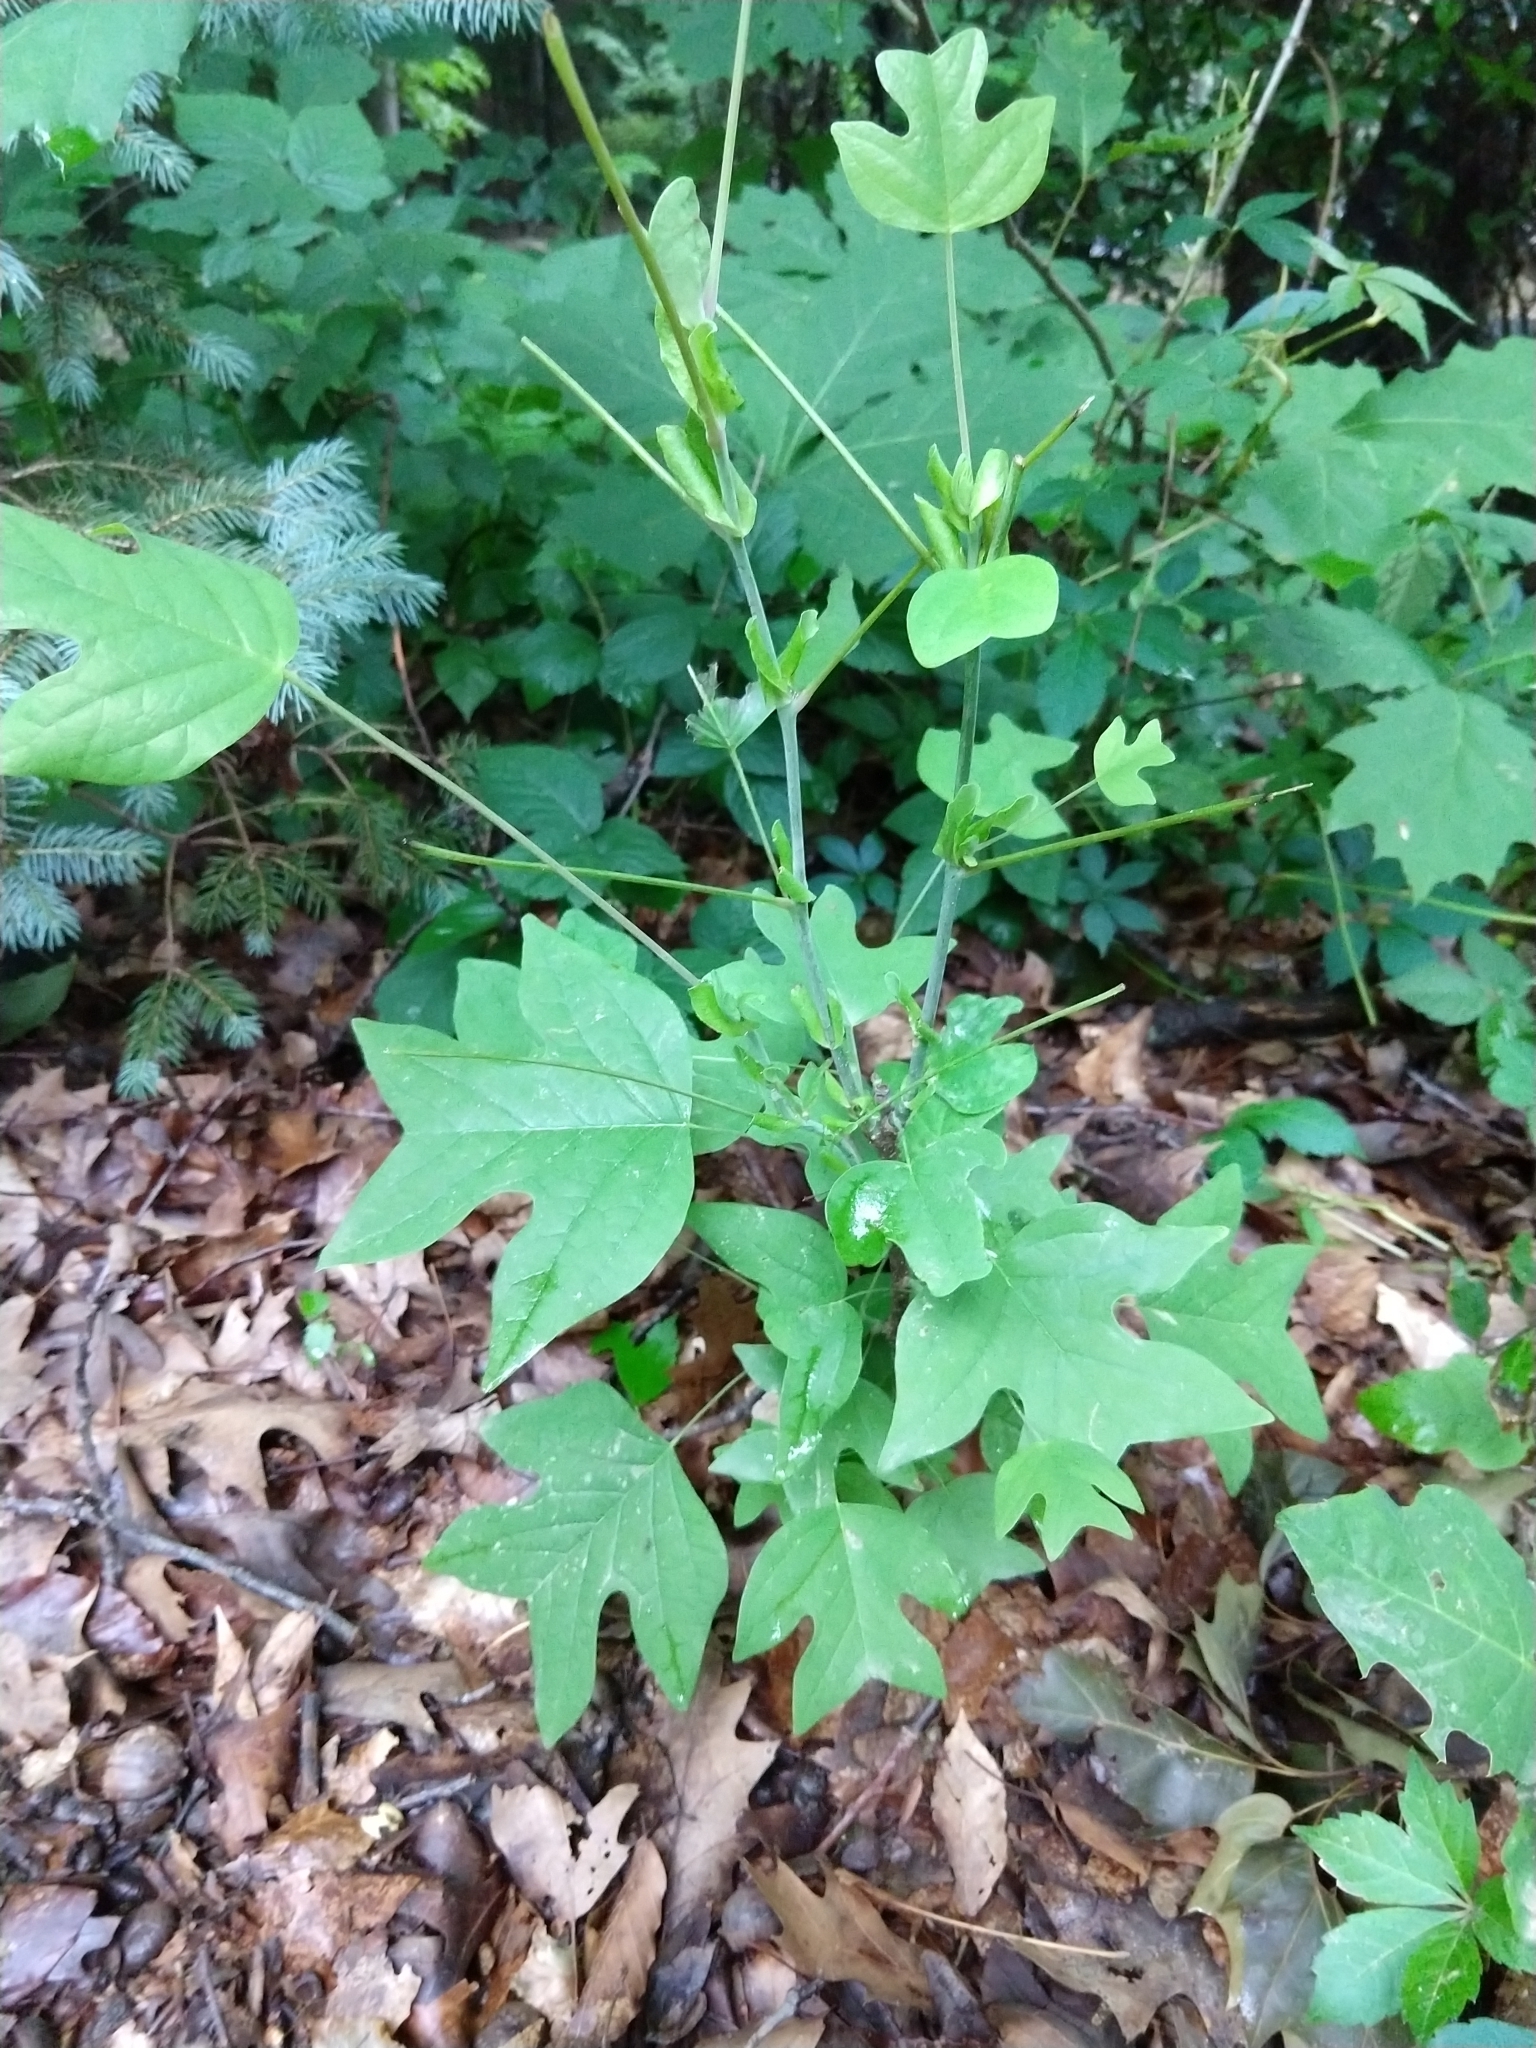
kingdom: Plantae
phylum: Tracheophyta
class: Magnoliopsida
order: Magnoliales
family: Magnoliaceae
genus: Liriodendron
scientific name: Liriodendron tulipifera
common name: Tulip tree
